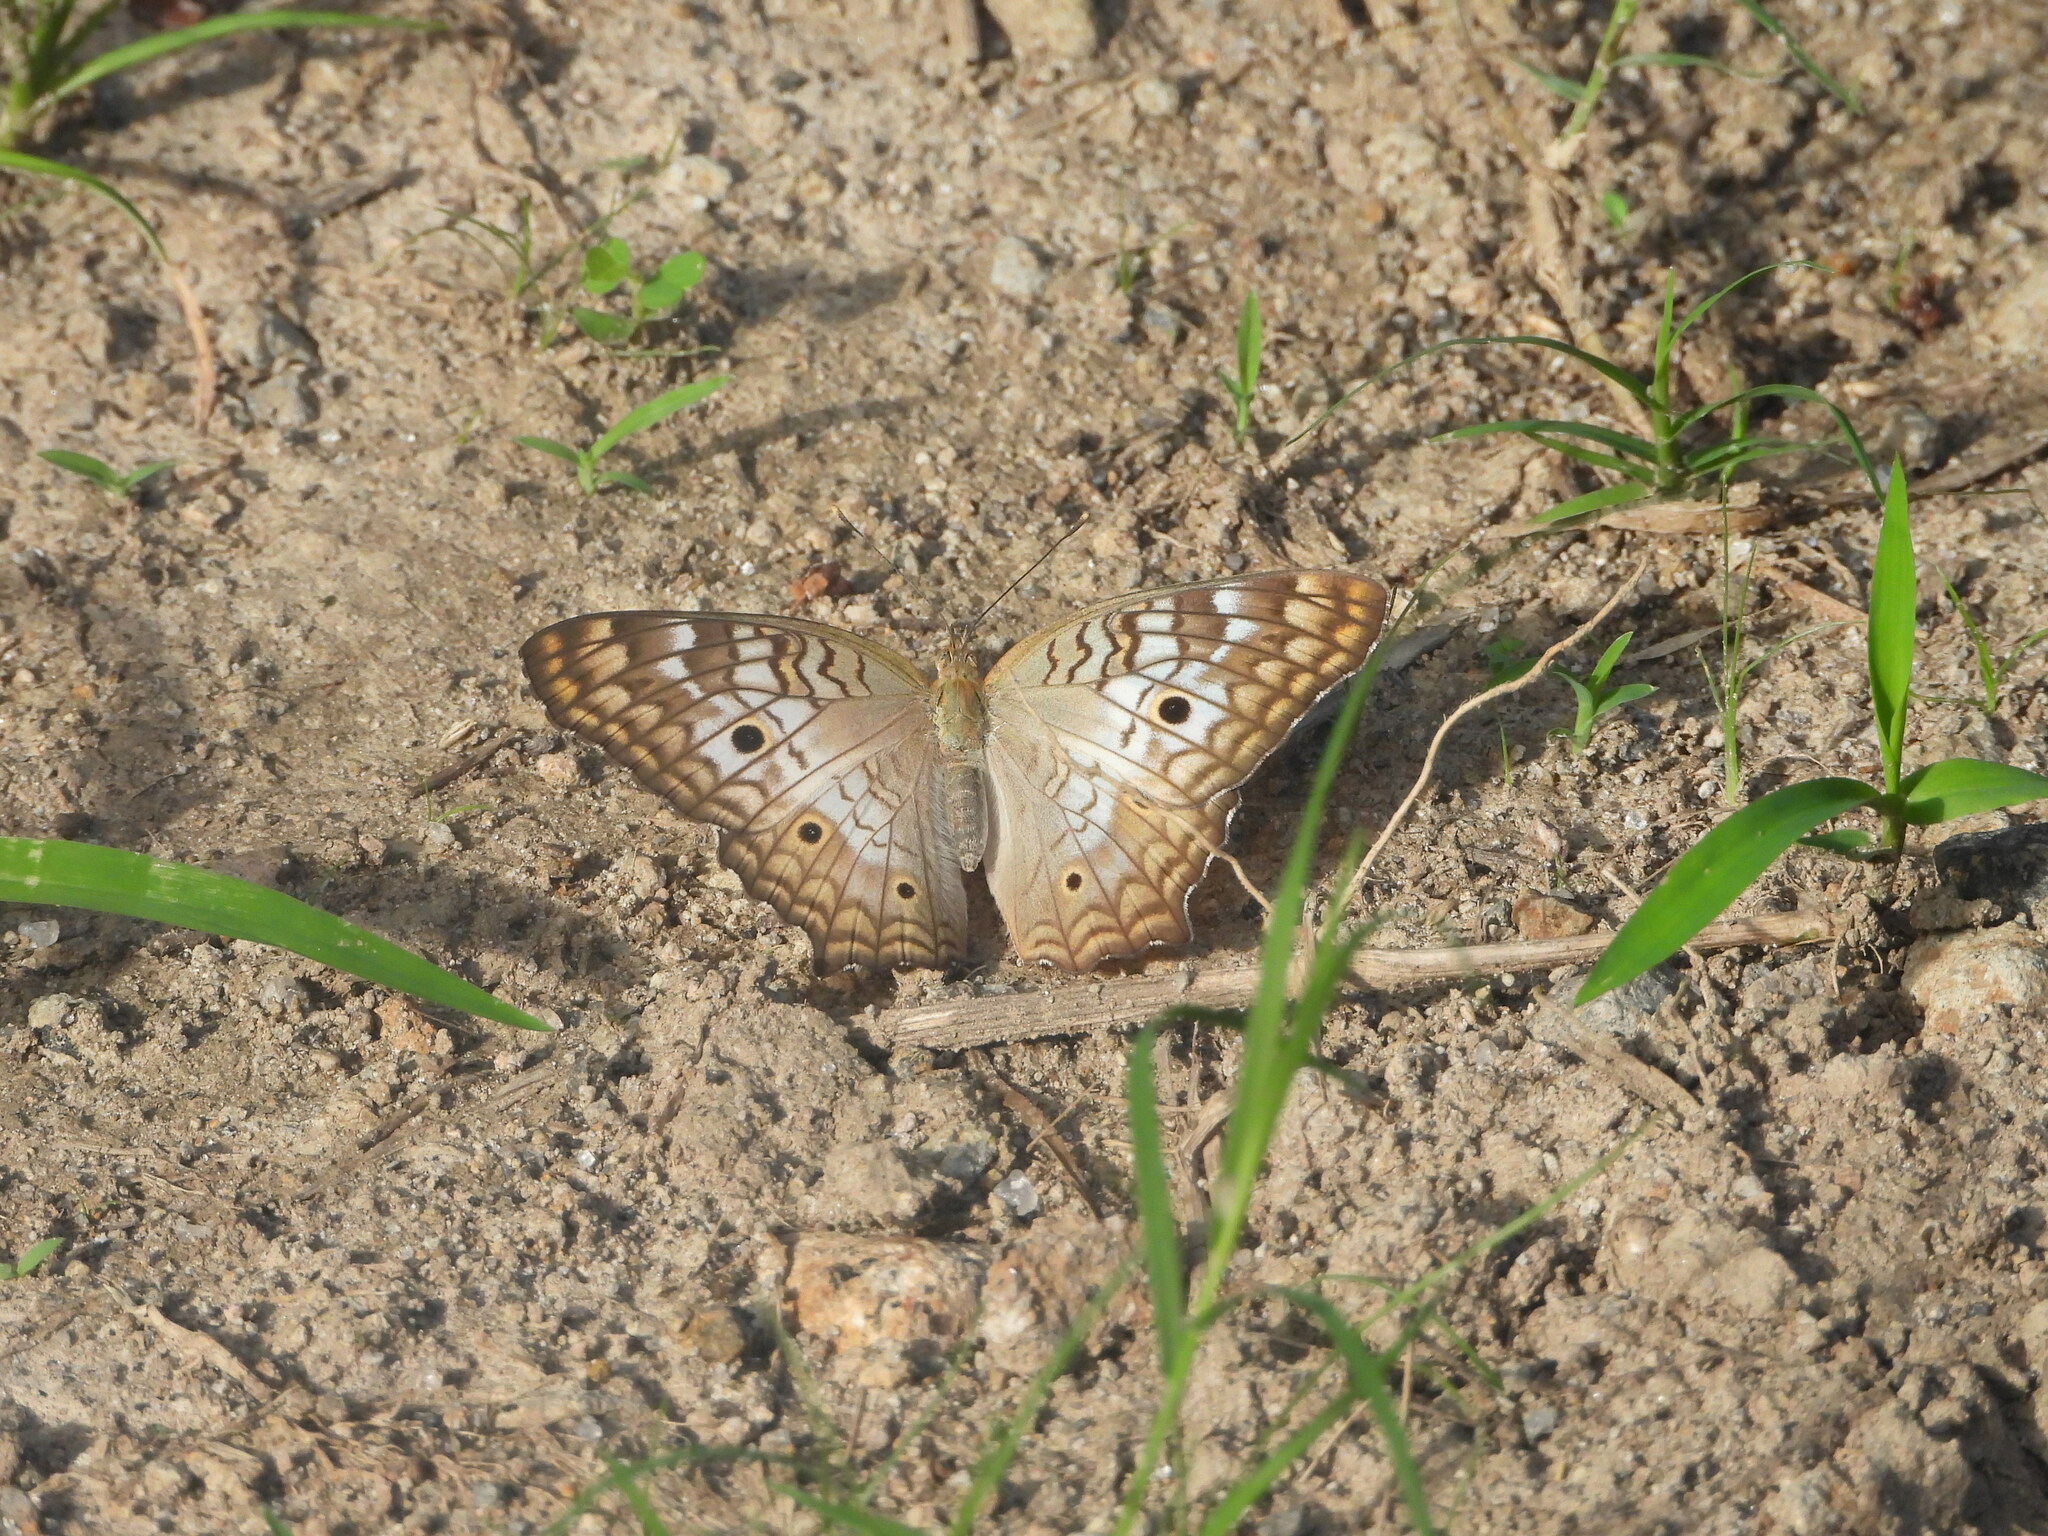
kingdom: Animalia
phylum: Arthropoda
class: Insecta
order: Lepidoptera
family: Nymphalidae
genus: Anartia
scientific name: Anartia jatrophae
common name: White peacock
